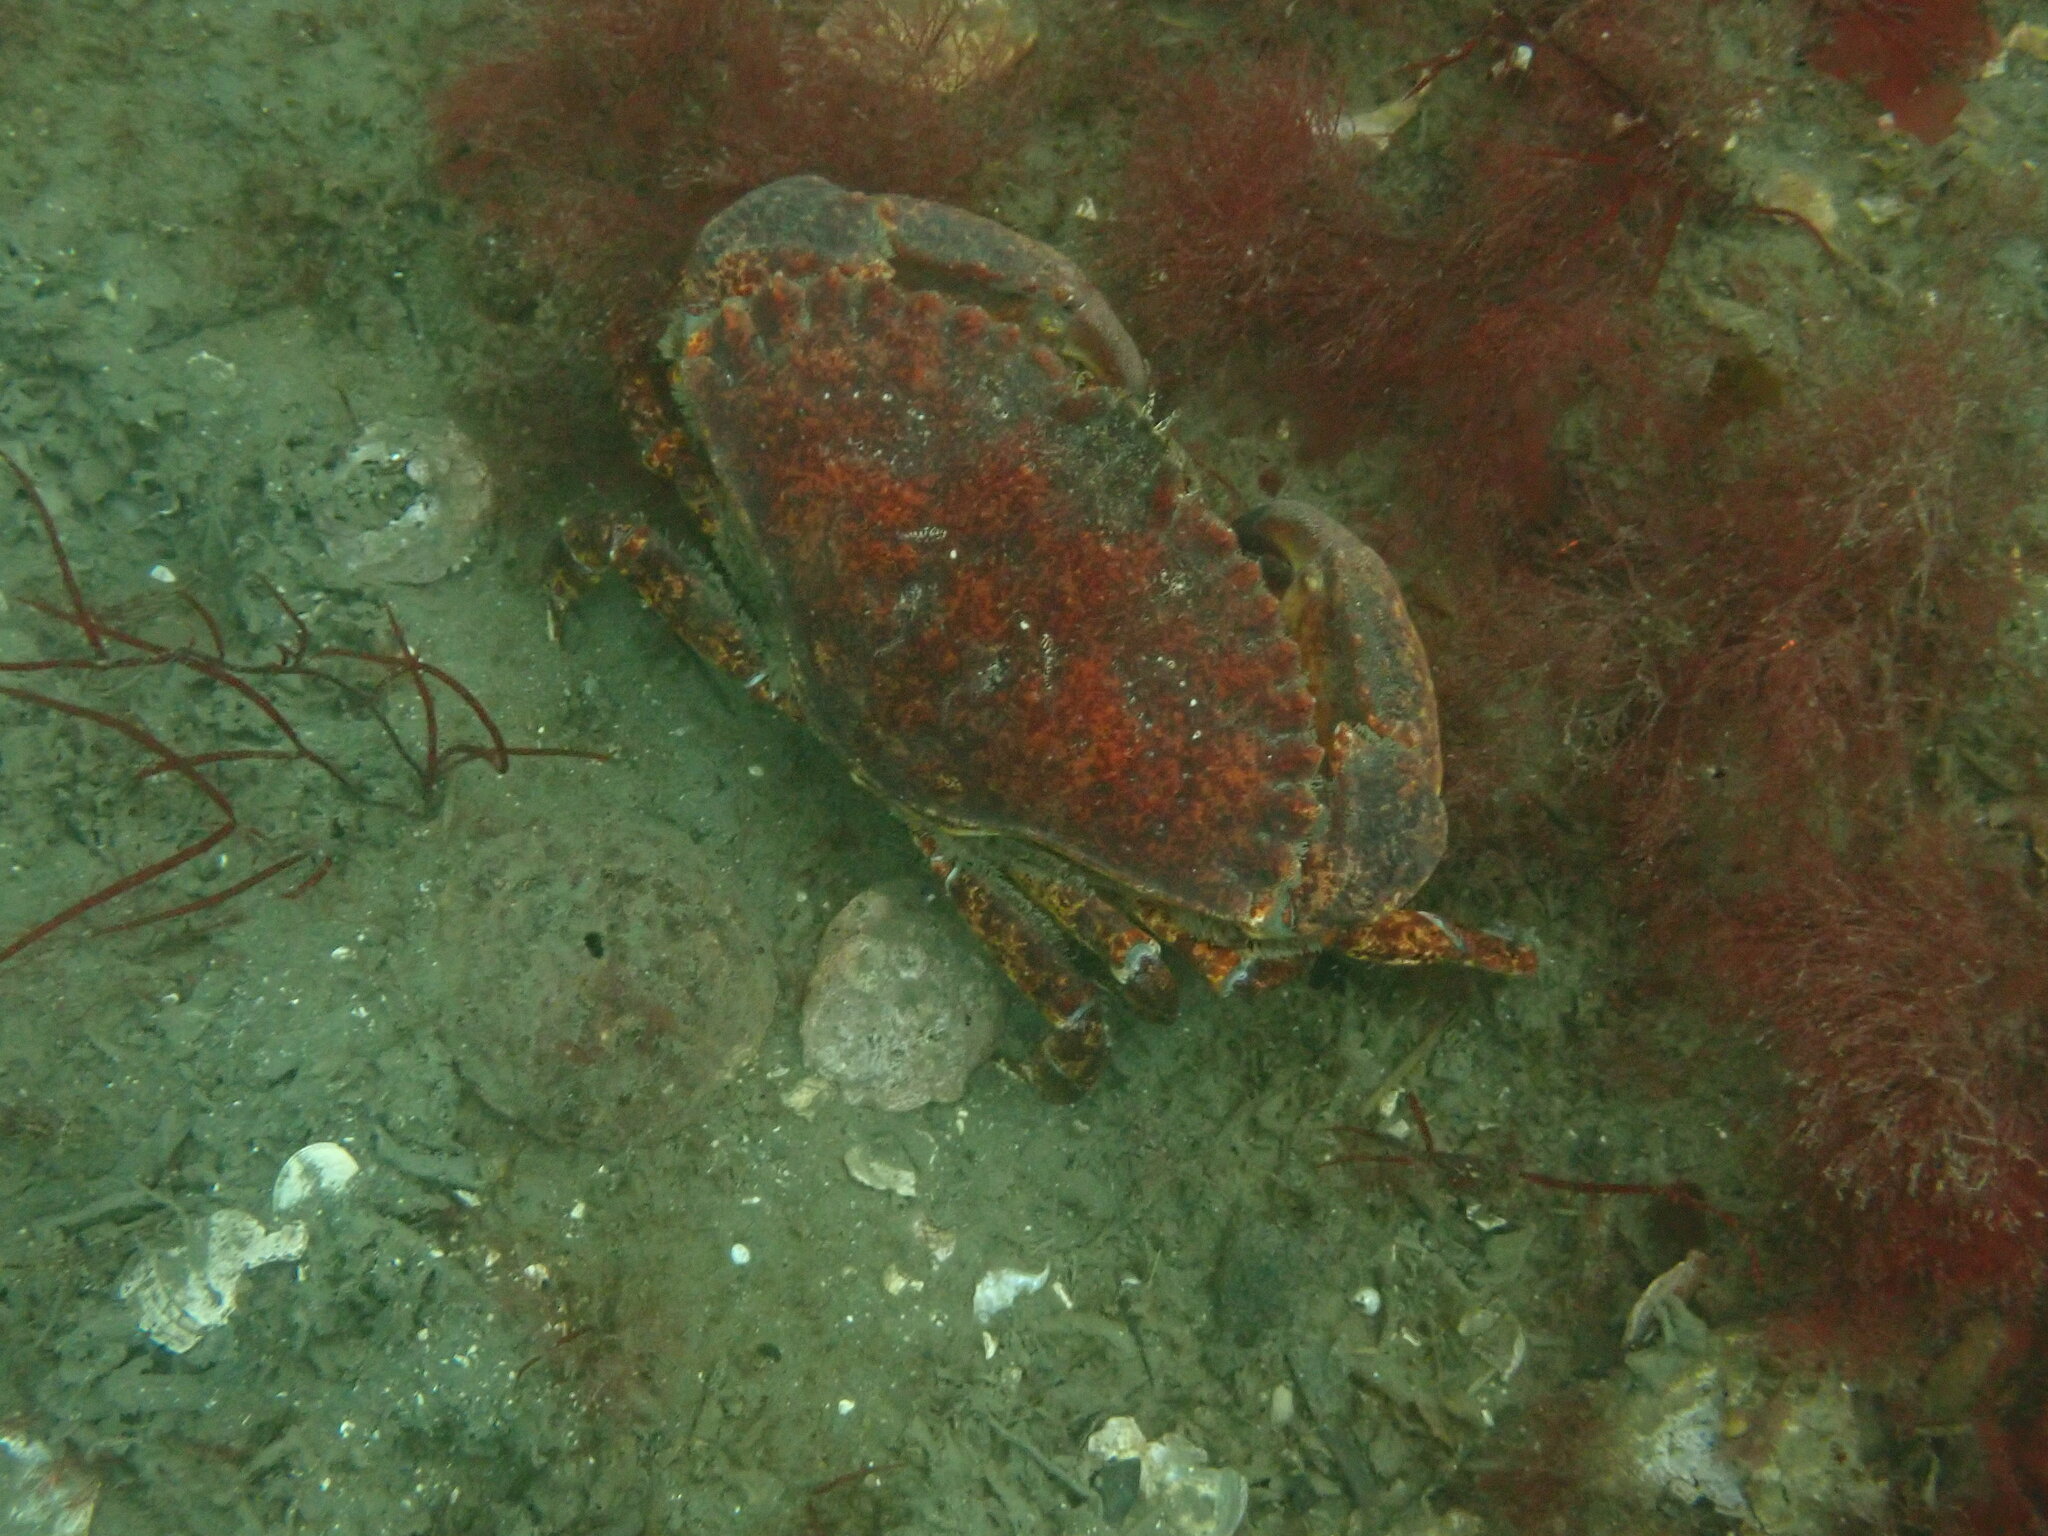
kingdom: Animalia
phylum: Arthropoda
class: Malacostraca
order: Decapoda
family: Cancridae
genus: Cancer
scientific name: Cancer productus
